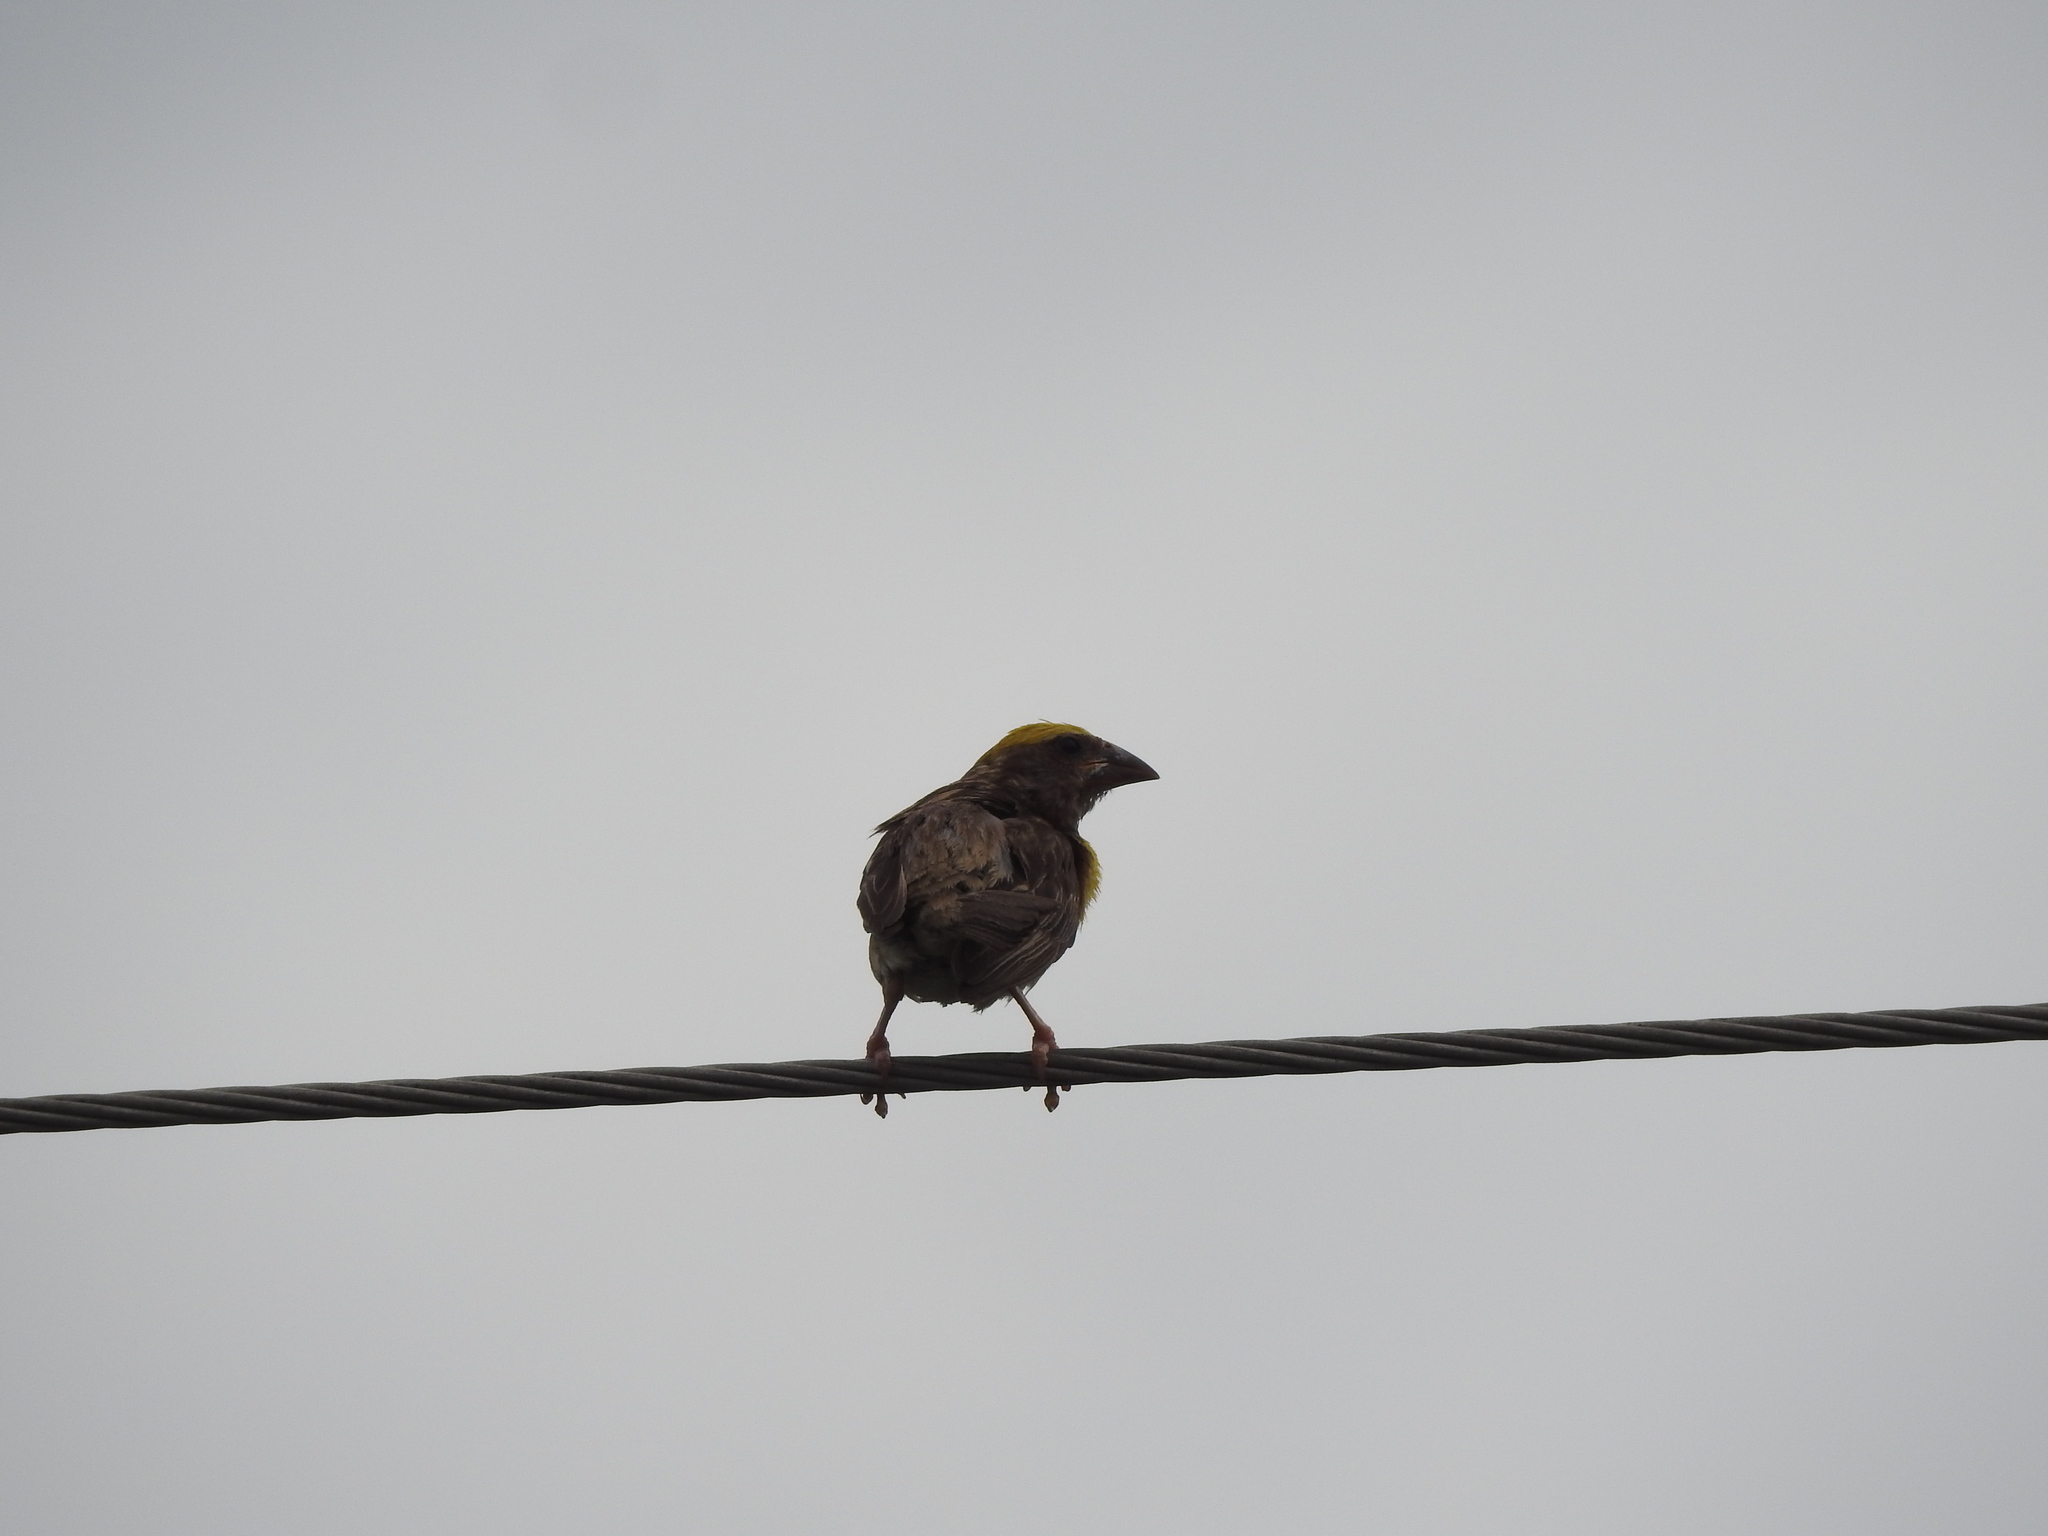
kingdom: Animalia
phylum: Chordata
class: Aves
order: Passeriformes
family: Ploceidae
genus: Ploceus
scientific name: Ploceus philippinus
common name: Baya weaver
